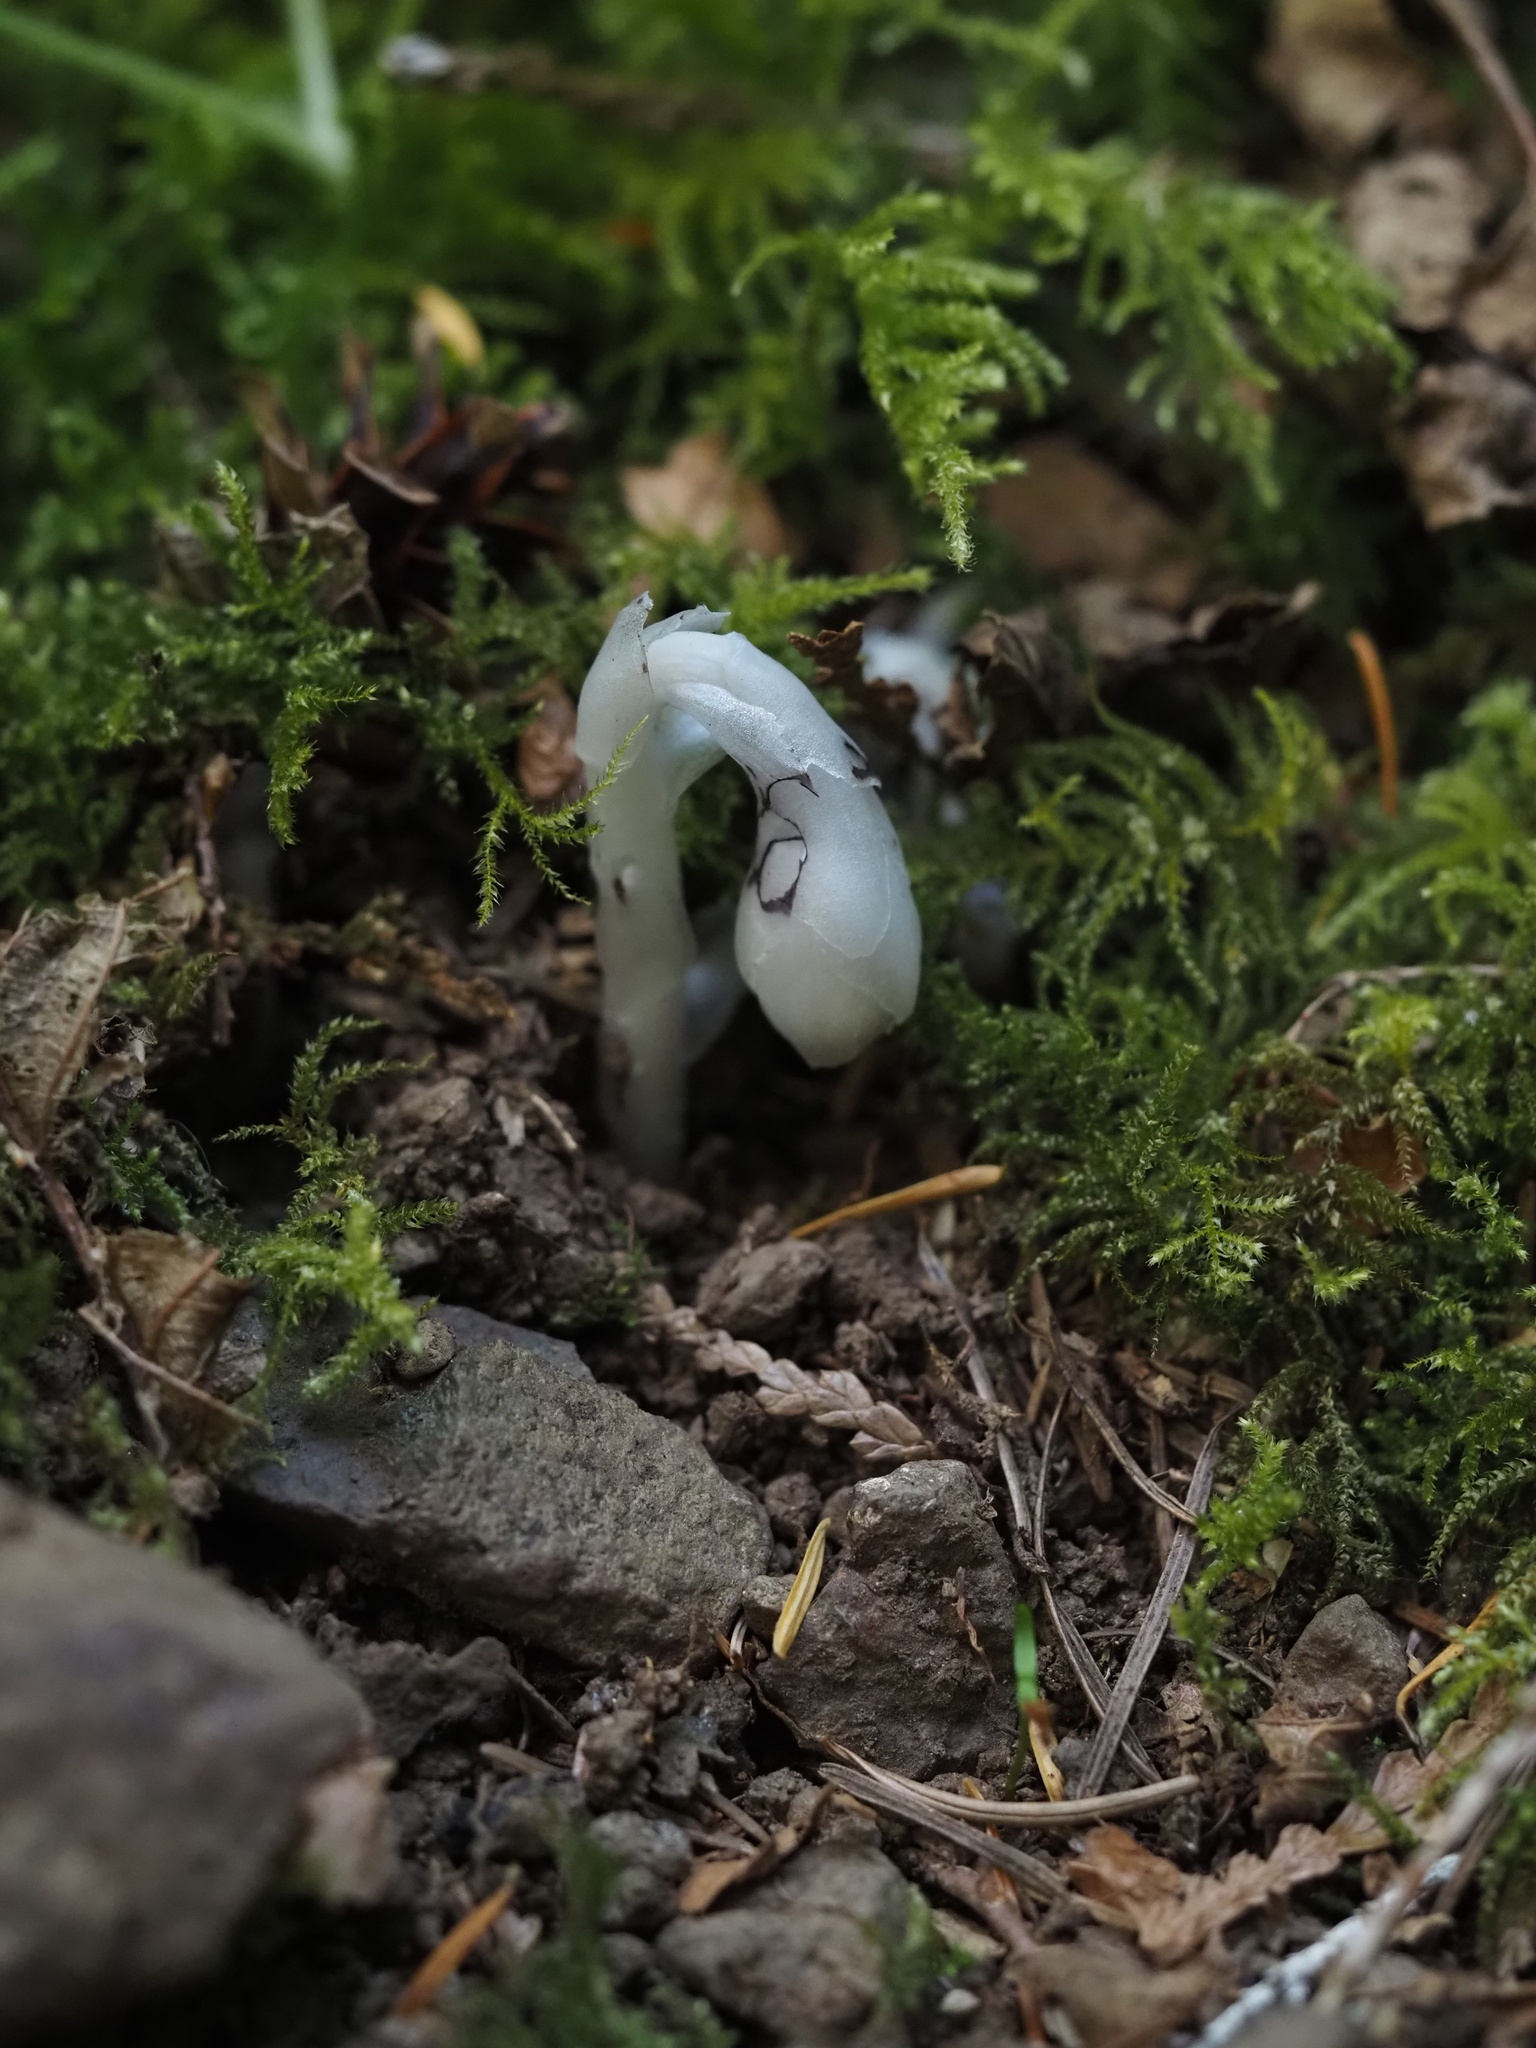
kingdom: Plantae
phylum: Tracheophyta
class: Magnoliopsida
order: Ericales
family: Ericaceae
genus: Monotropa
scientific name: Monotropa uniflora
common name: Convulsion root
